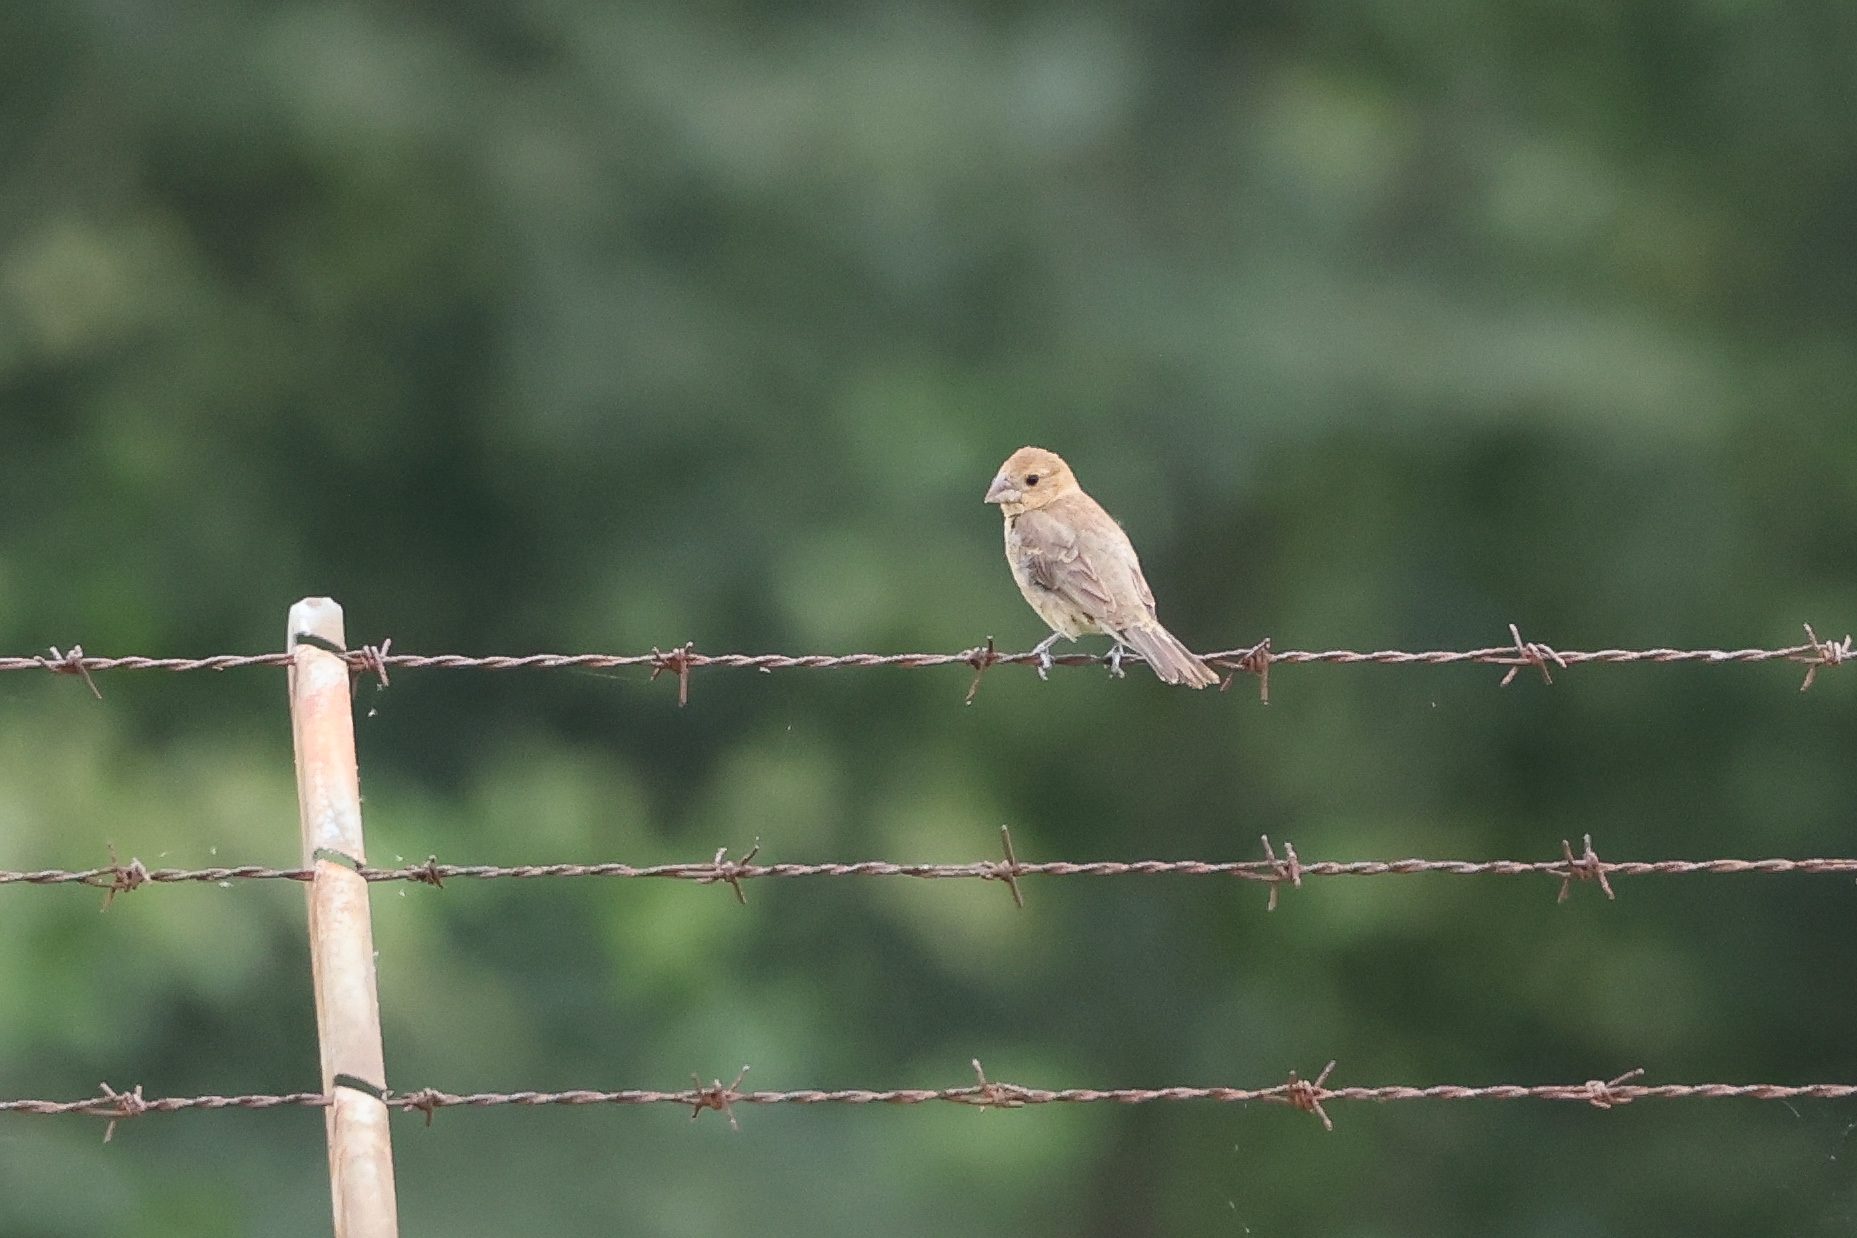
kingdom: Animalia
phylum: Chordata
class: Aves
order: Passeriformes
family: Cardinalidae
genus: Passerina
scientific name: Passerina caerulea
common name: Blue grosbeak
